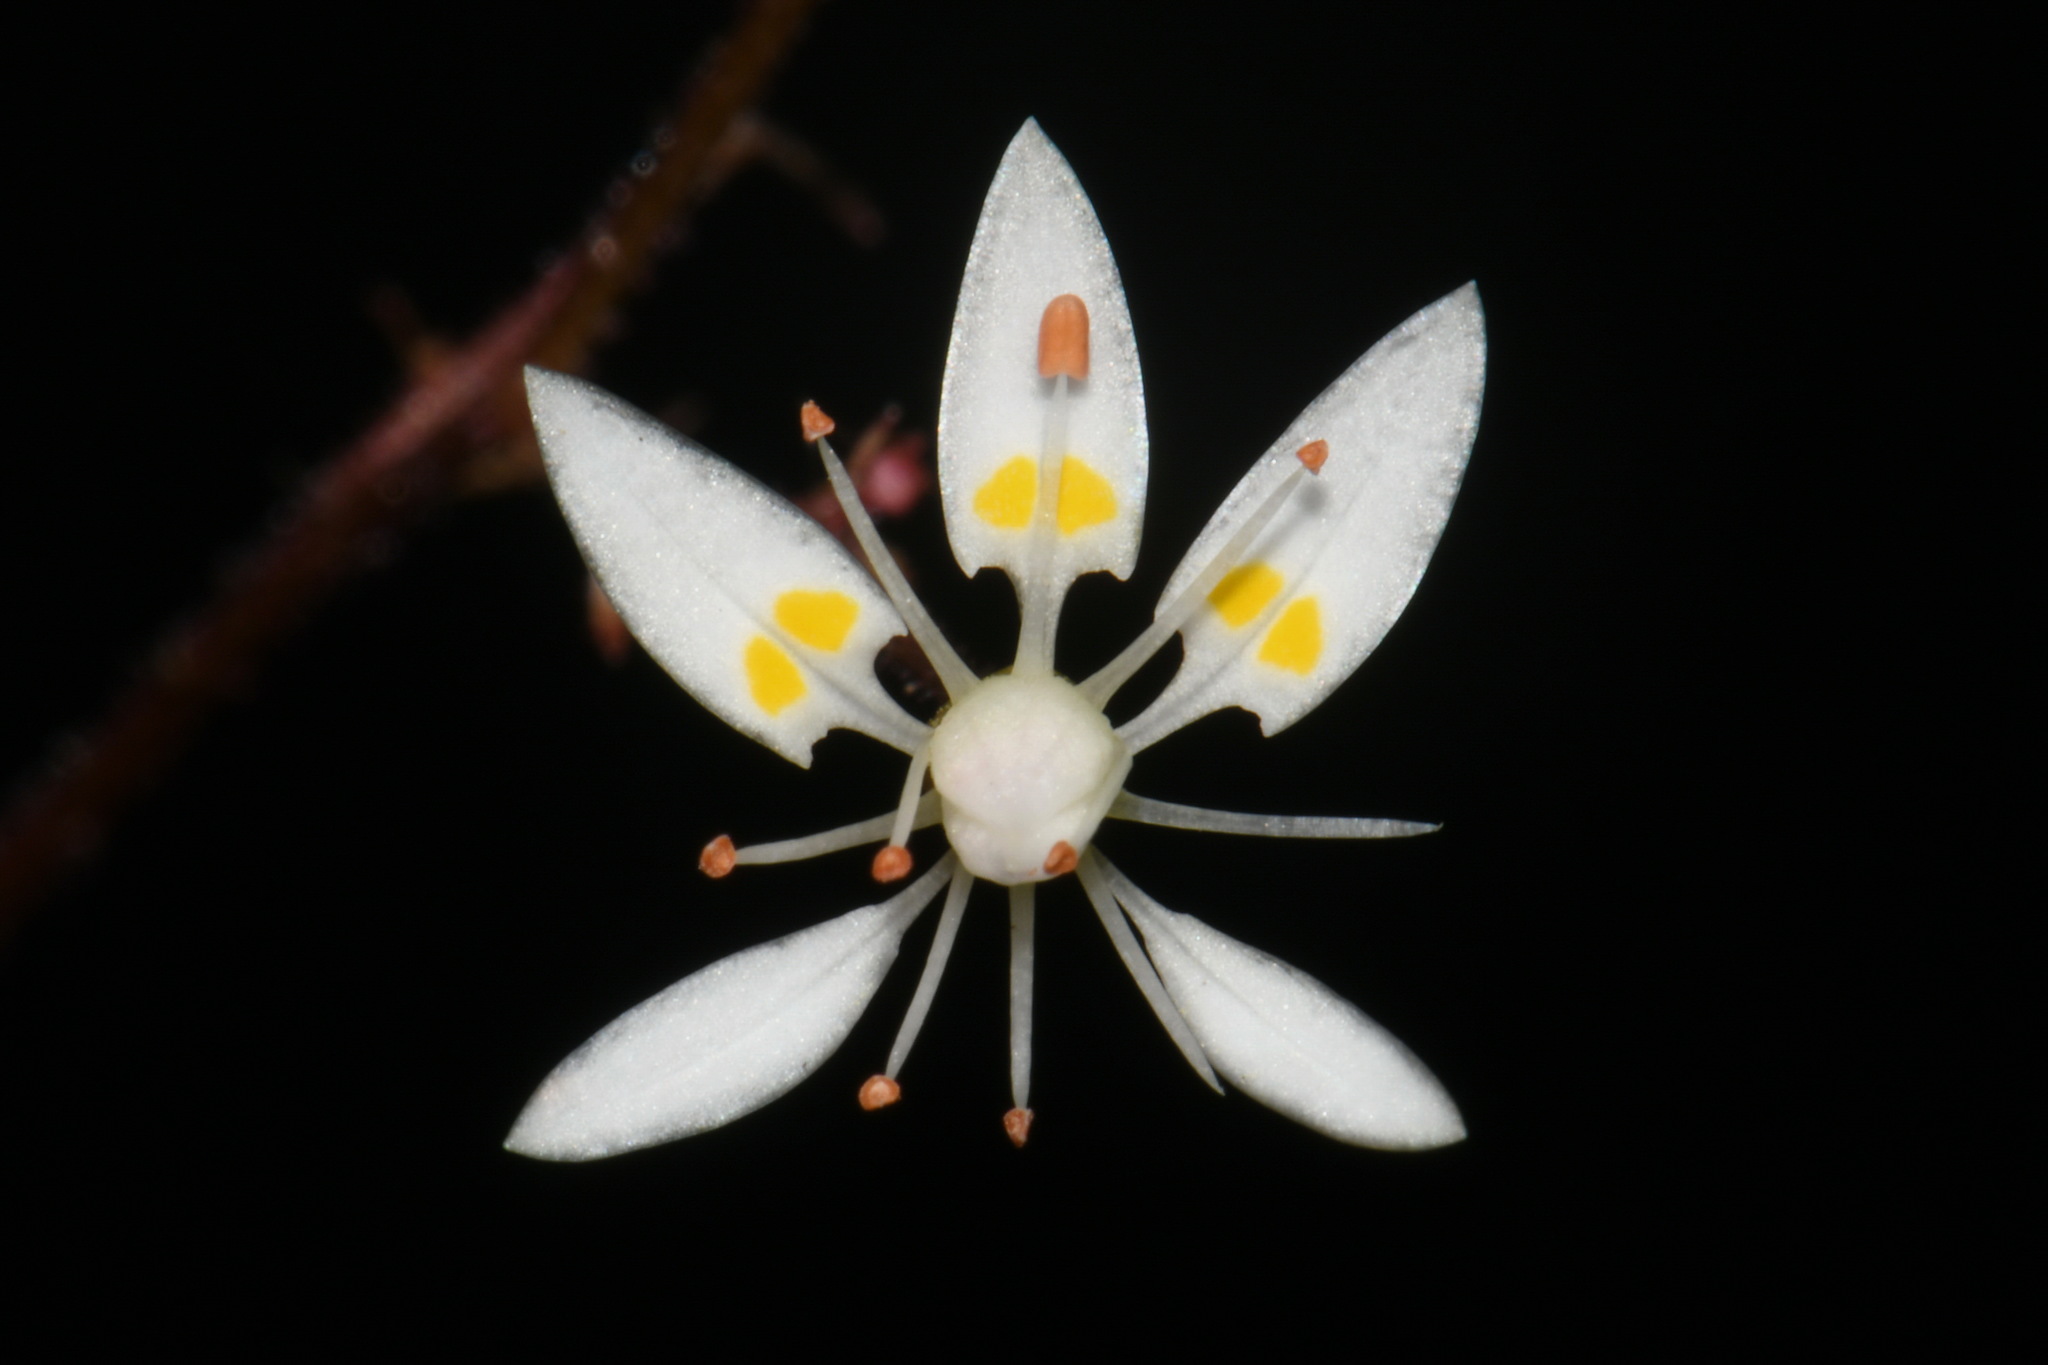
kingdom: Plantae
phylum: Tracheophyta
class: Magnoliopsida
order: Saxifragales
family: Saxifragaceae
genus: Micranthes
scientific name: Micranthes ferruginea
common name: Rusty saxifrage
